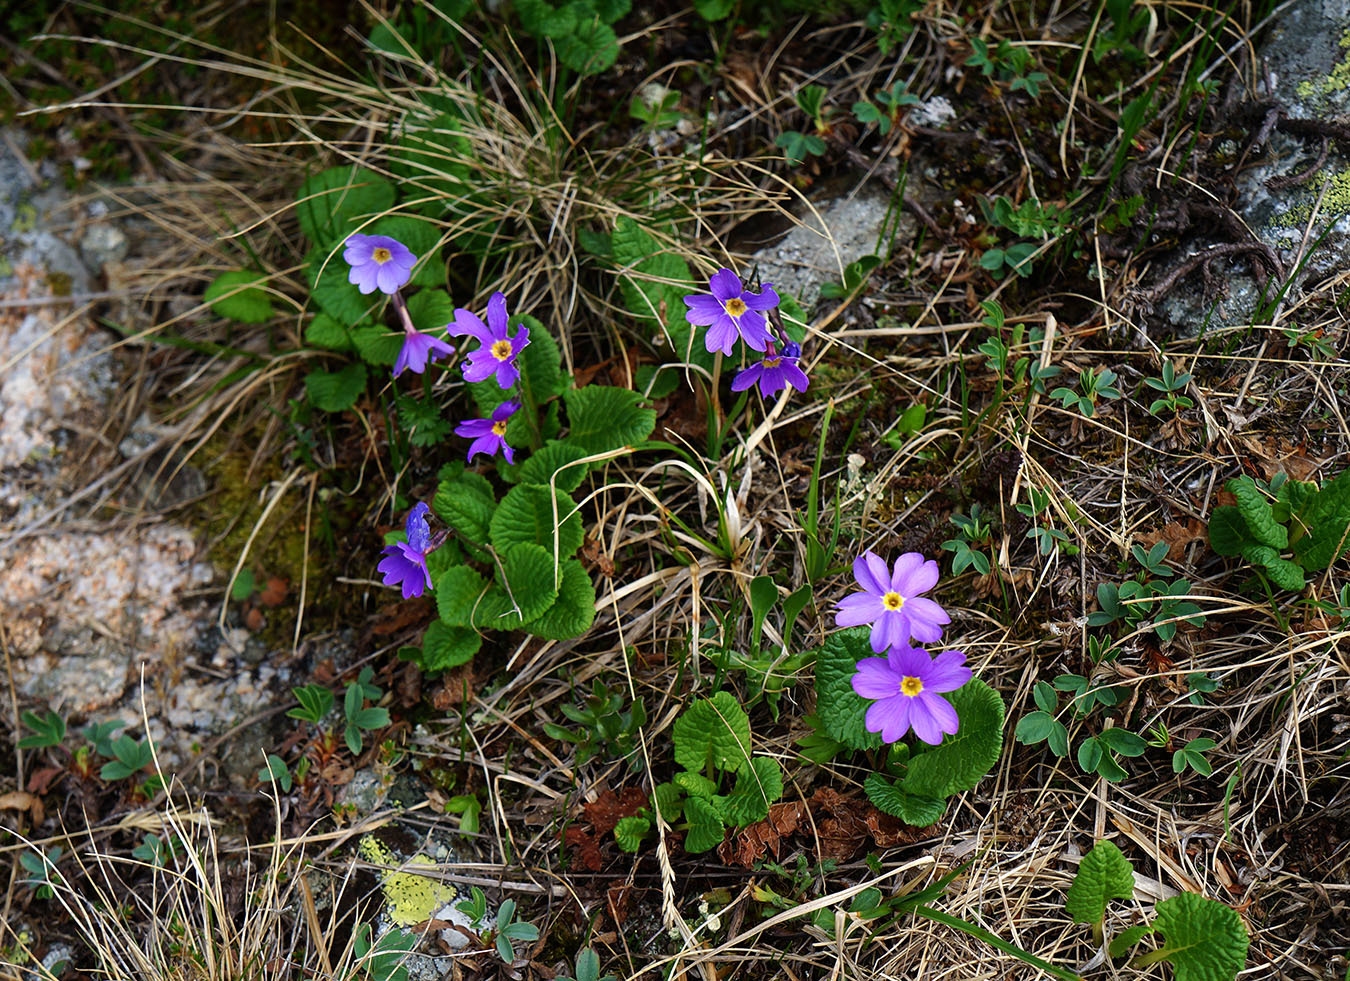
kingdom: Plantae
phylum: Tracheophyta
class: Magnoliopsida
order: Ericales
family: Primulaceae
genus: Primula
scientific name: Primula amoena
